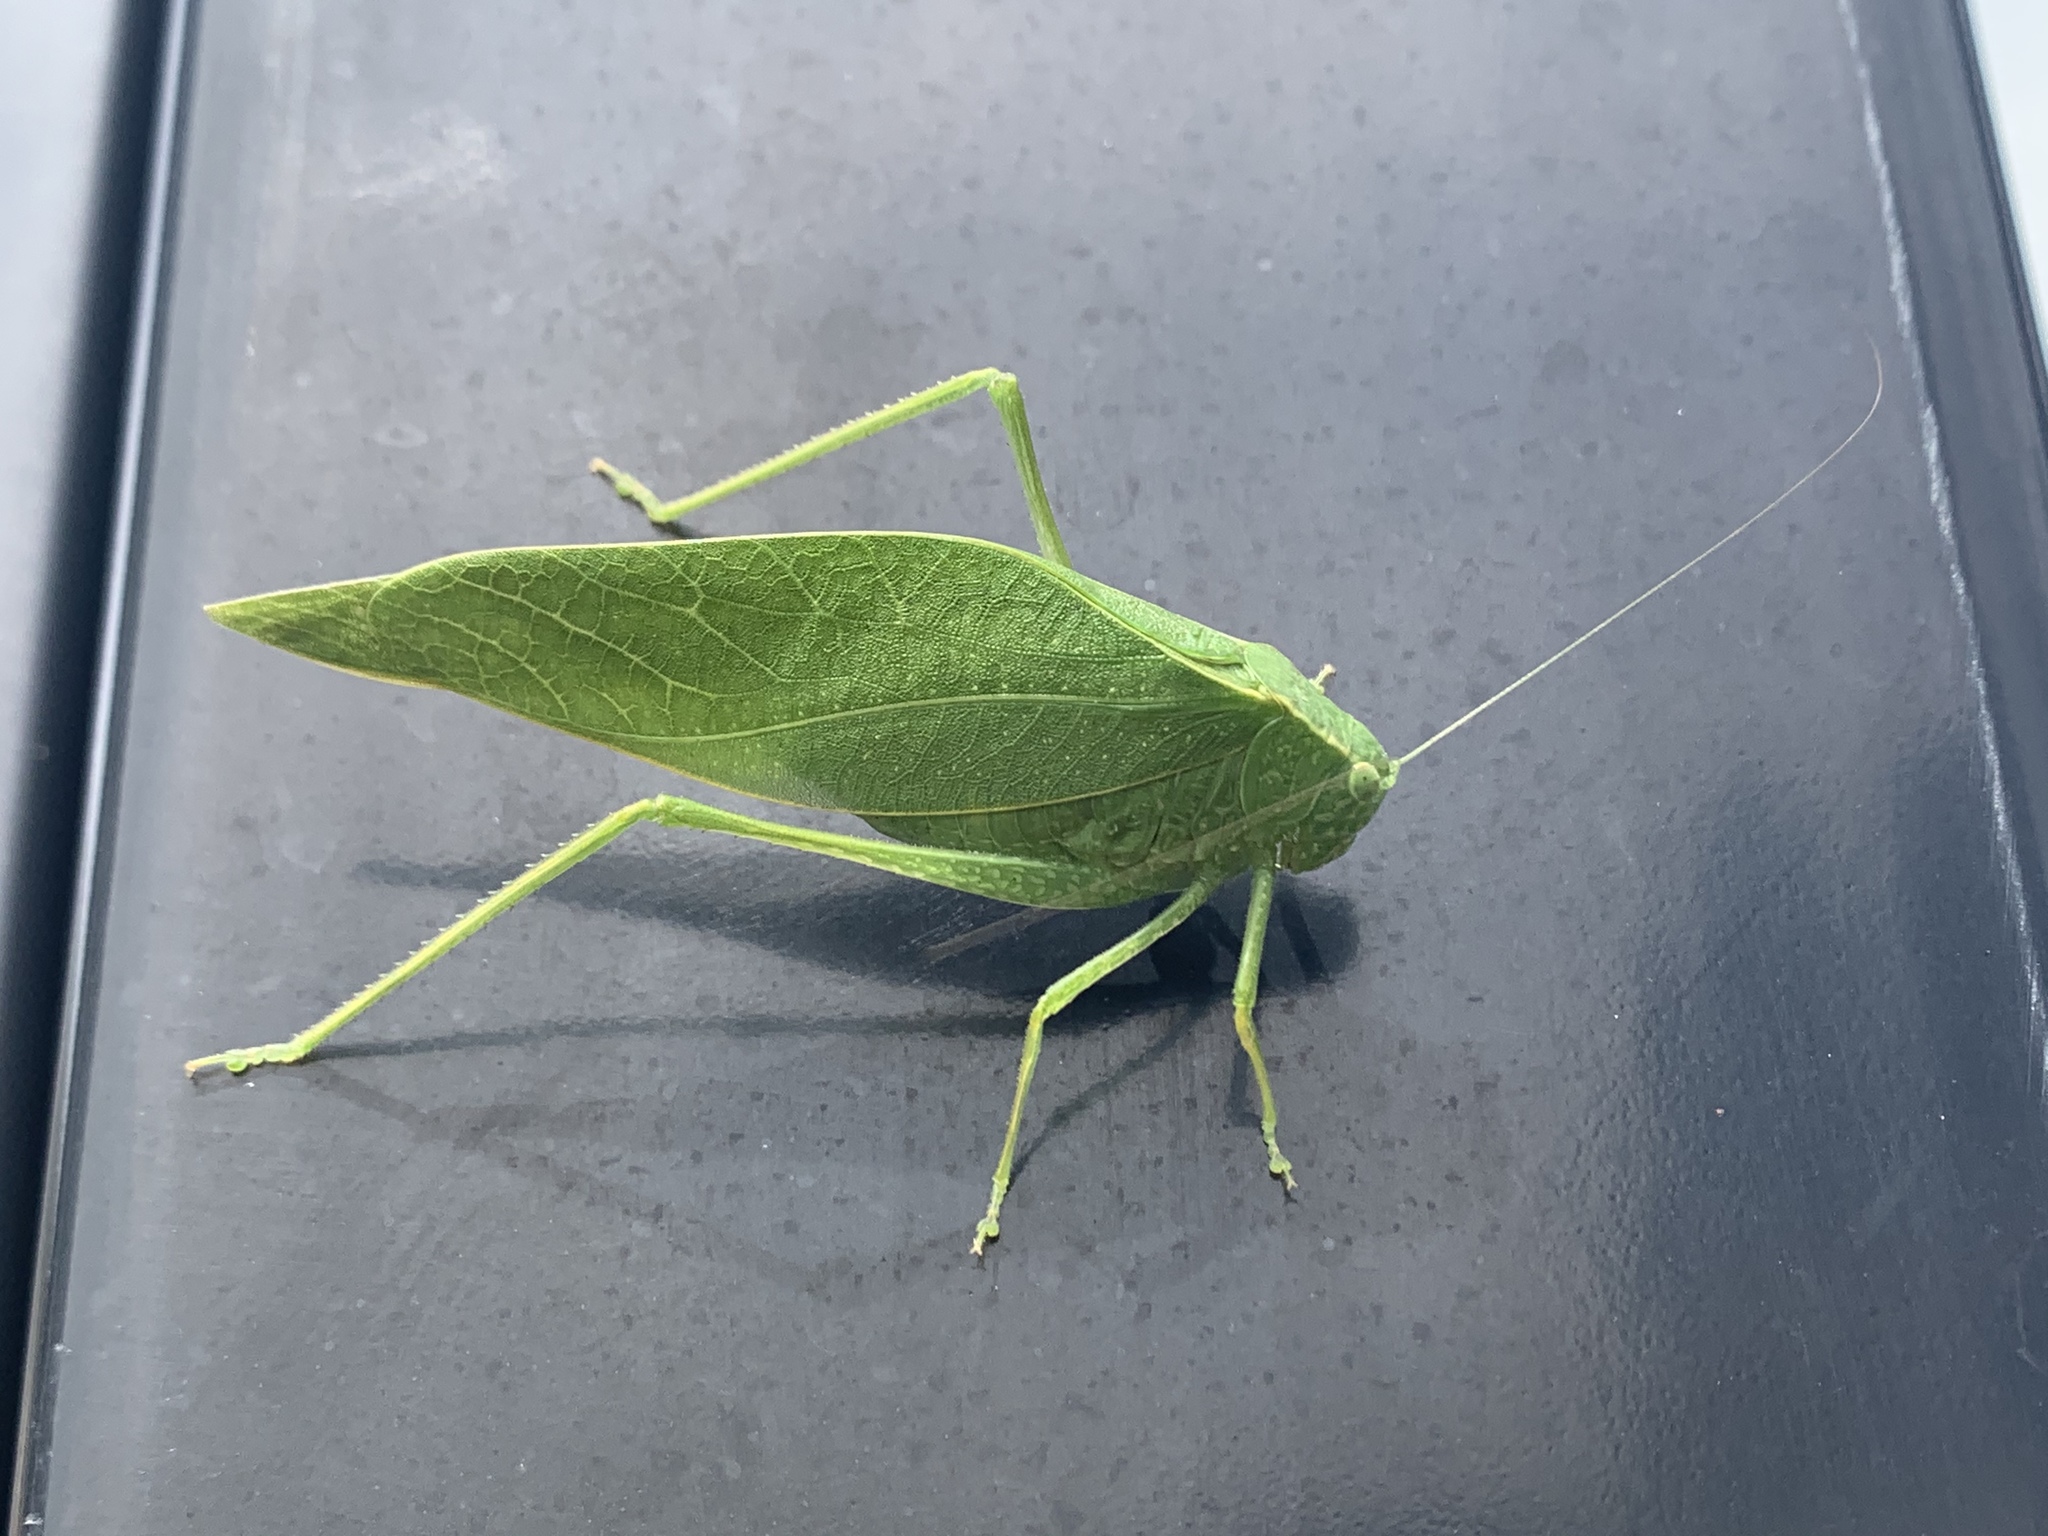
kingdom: Animalia
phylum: Arthropoda
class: Insecta
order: Orthoptera
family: Tettigoniidae
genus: Microcentrum
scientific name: Microcentrum rhombifolium
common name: Broad-winged katydid
